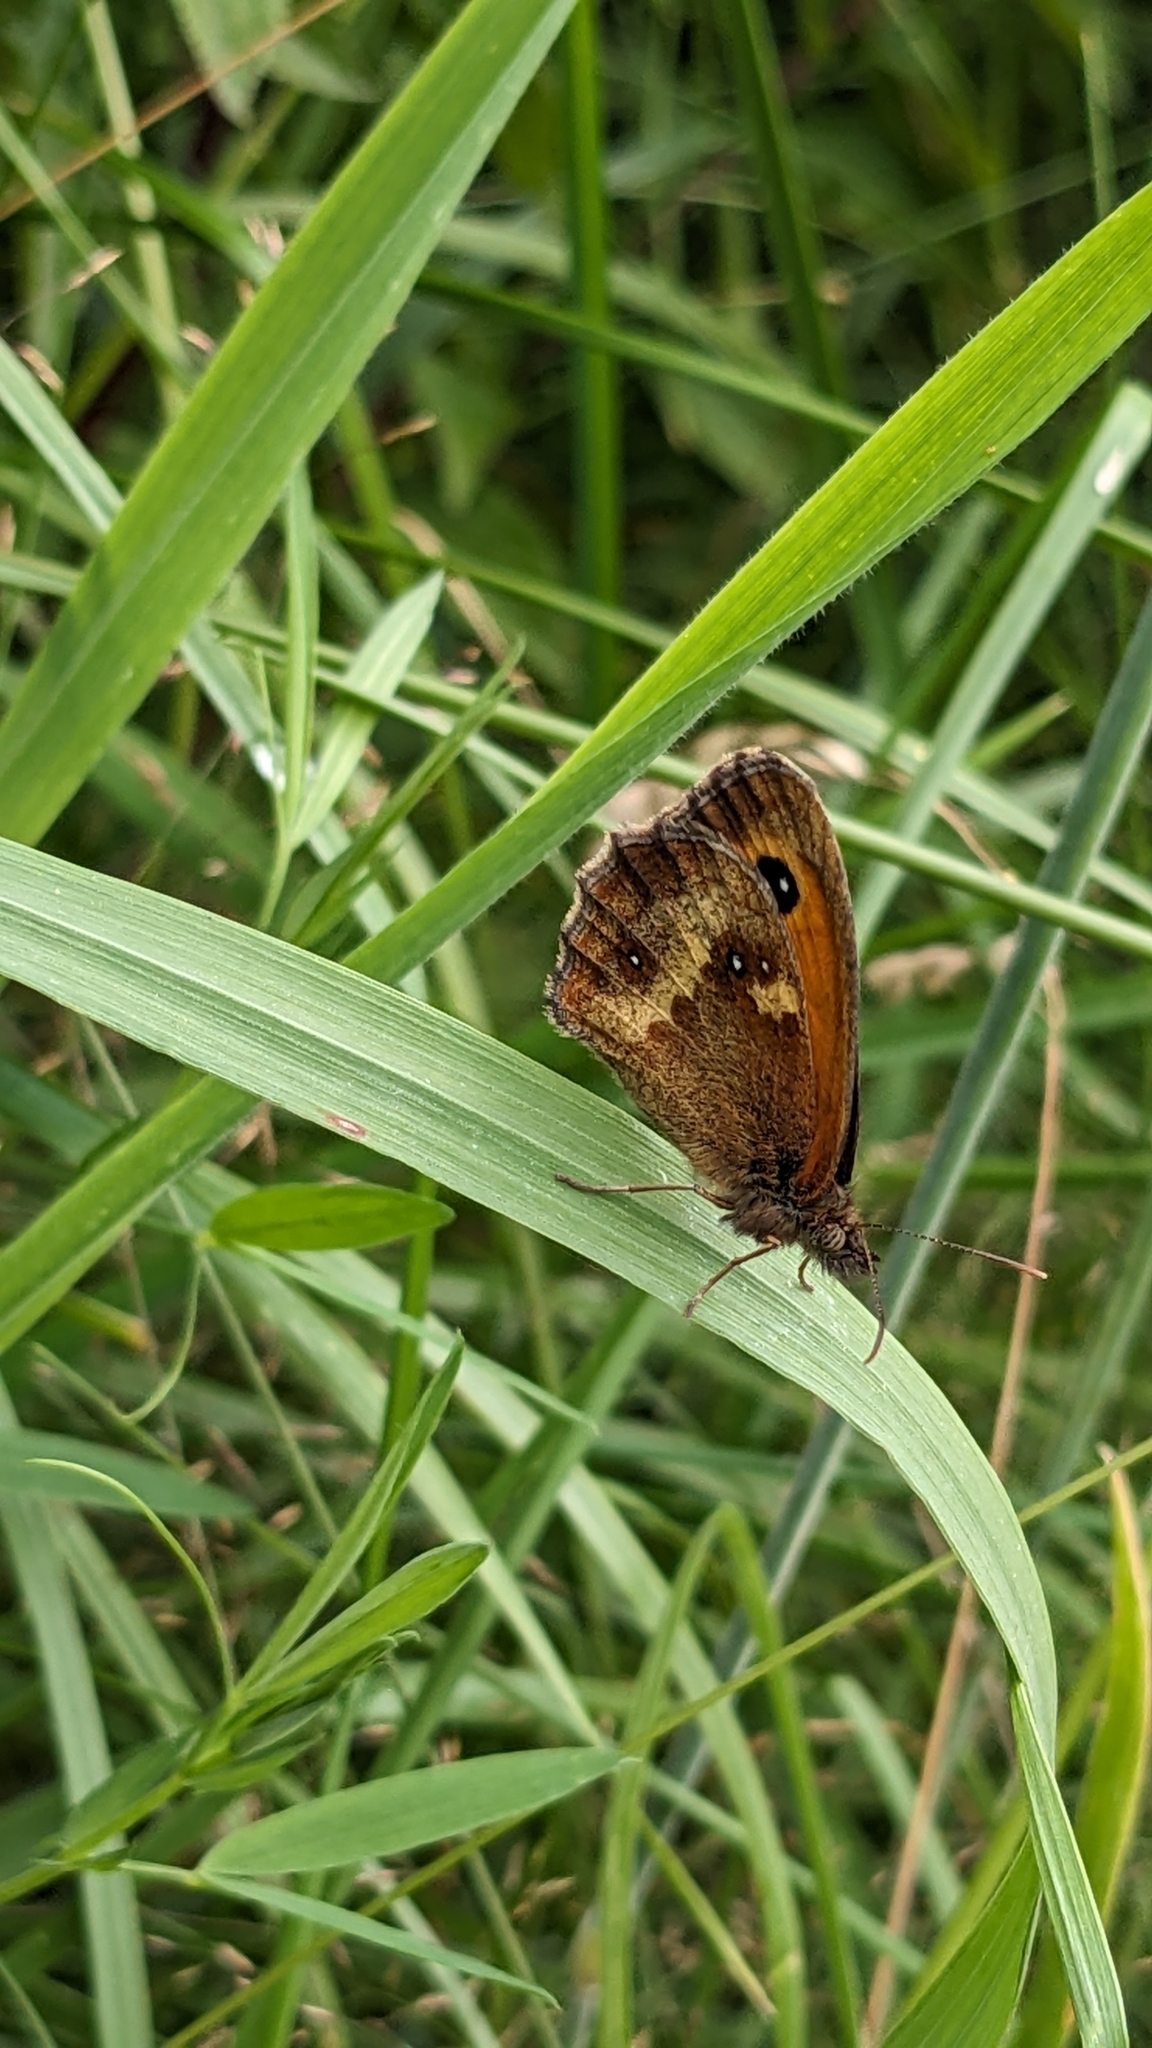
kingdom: Animalia
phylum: Arthropoda
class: Insecta
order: Lepidoptera
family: Nymphalidae
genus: Pyronia
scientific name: Pyronia tithonus
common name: Gatekeeper
